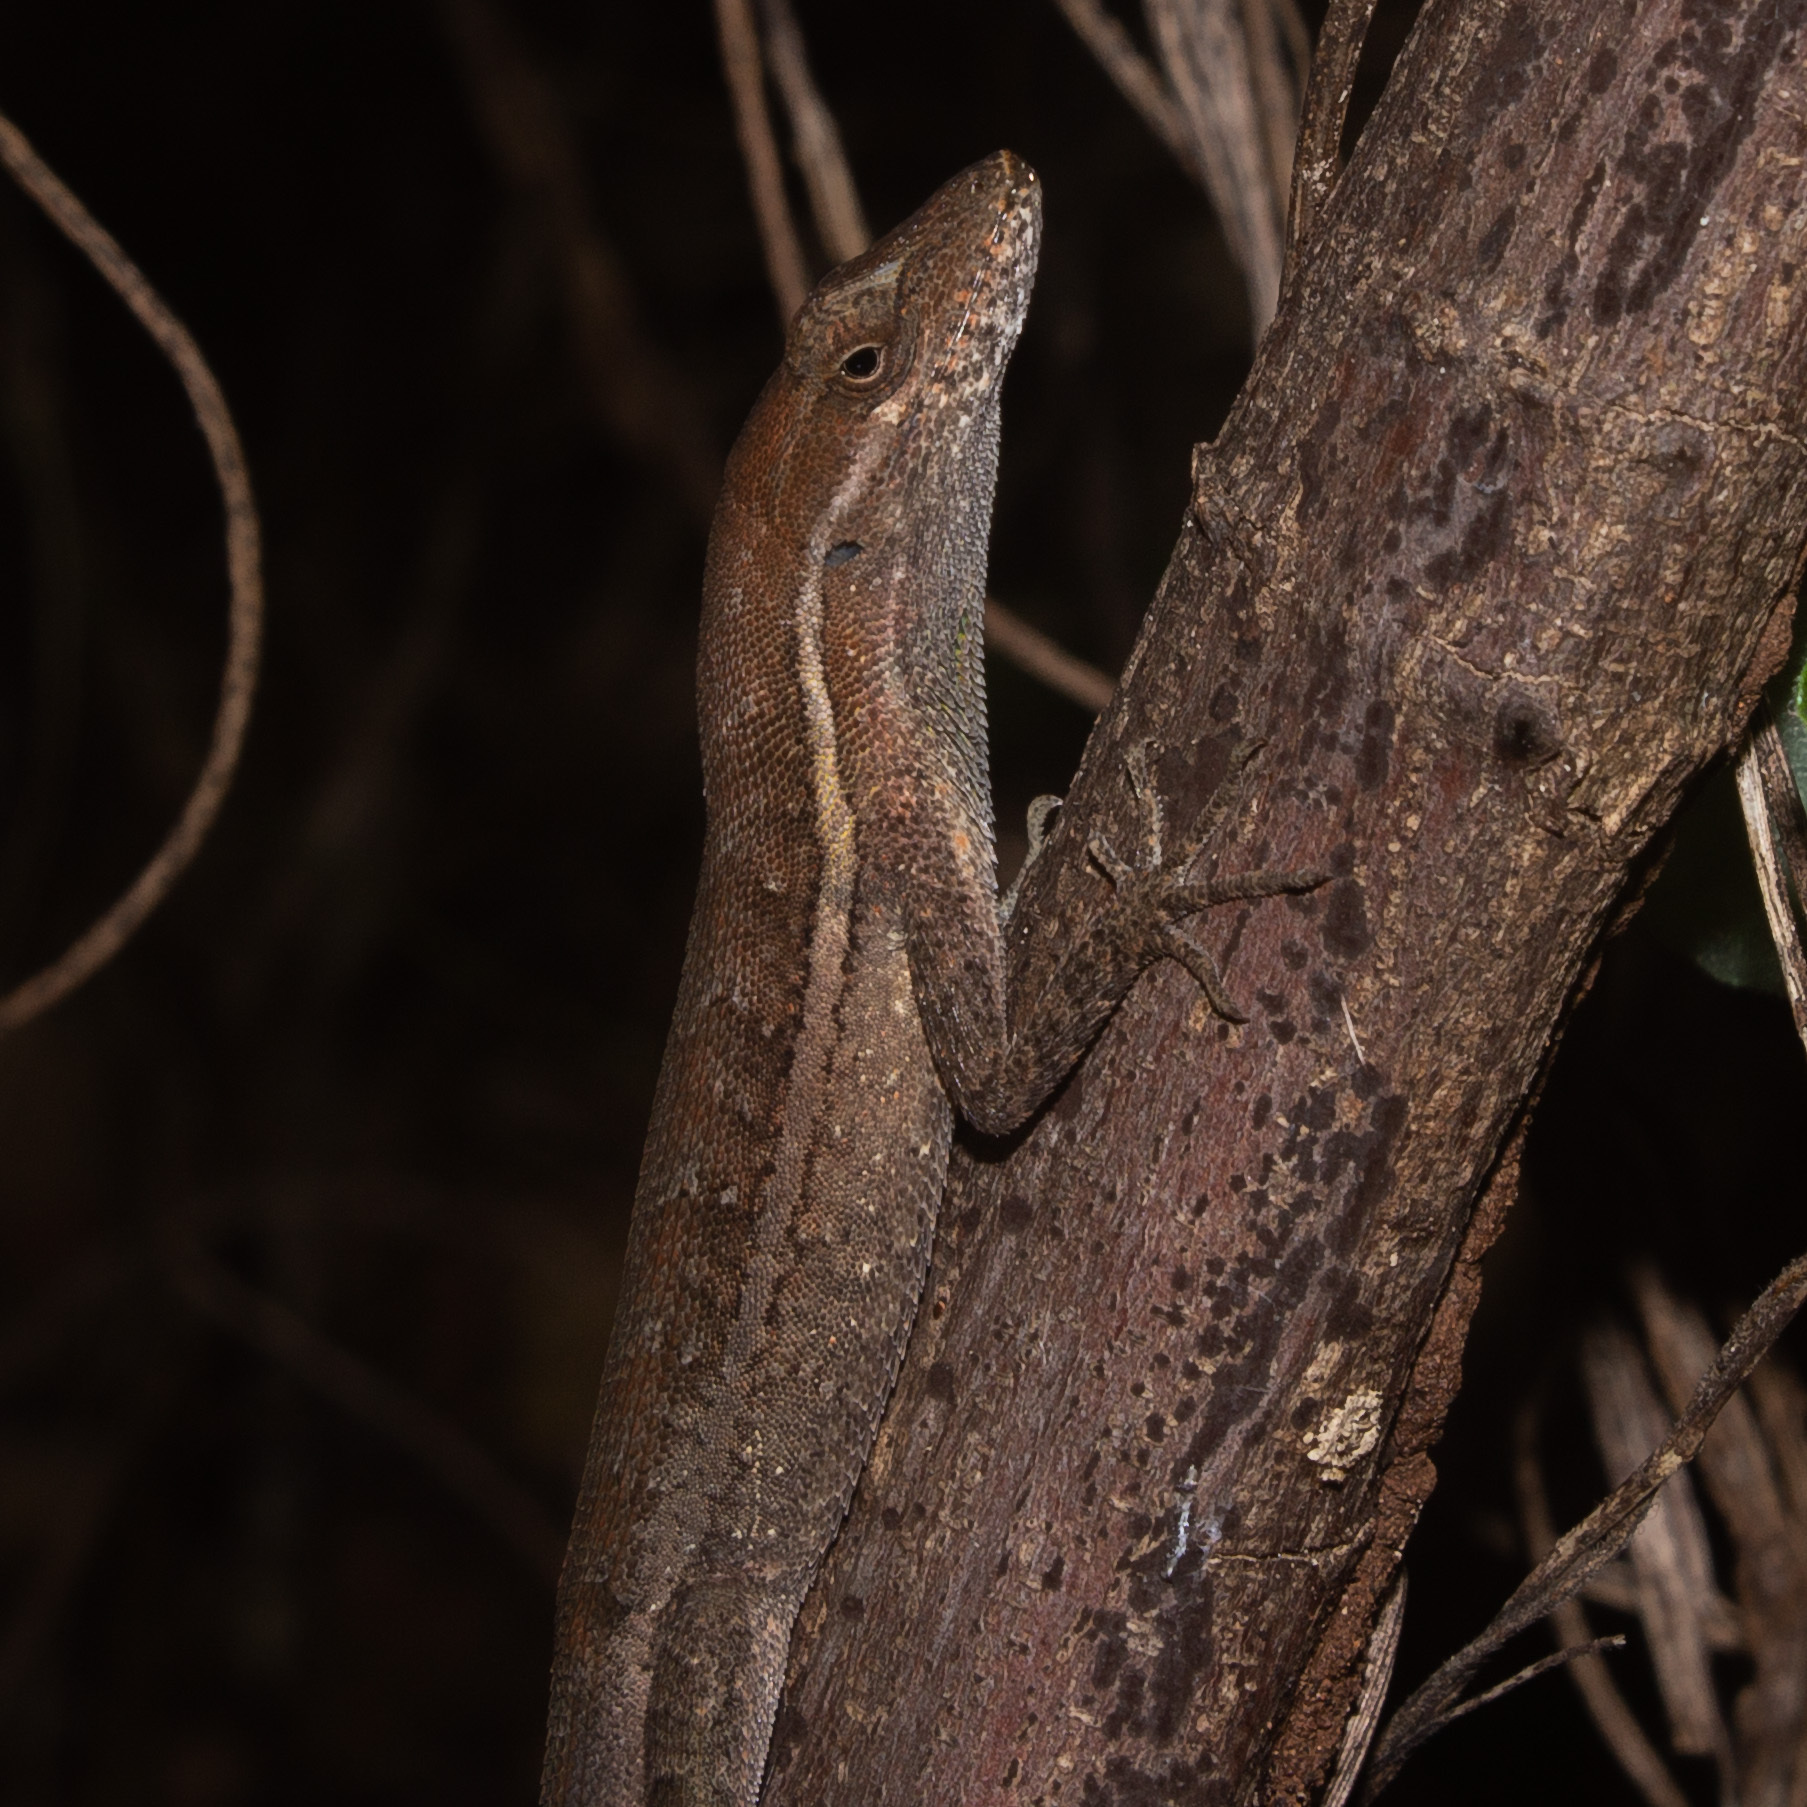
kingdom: Animalia
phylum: Chordata
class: Squamata
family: Dactyloidae
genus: Anolis
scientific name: Anolis auratus
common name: Grass anole
